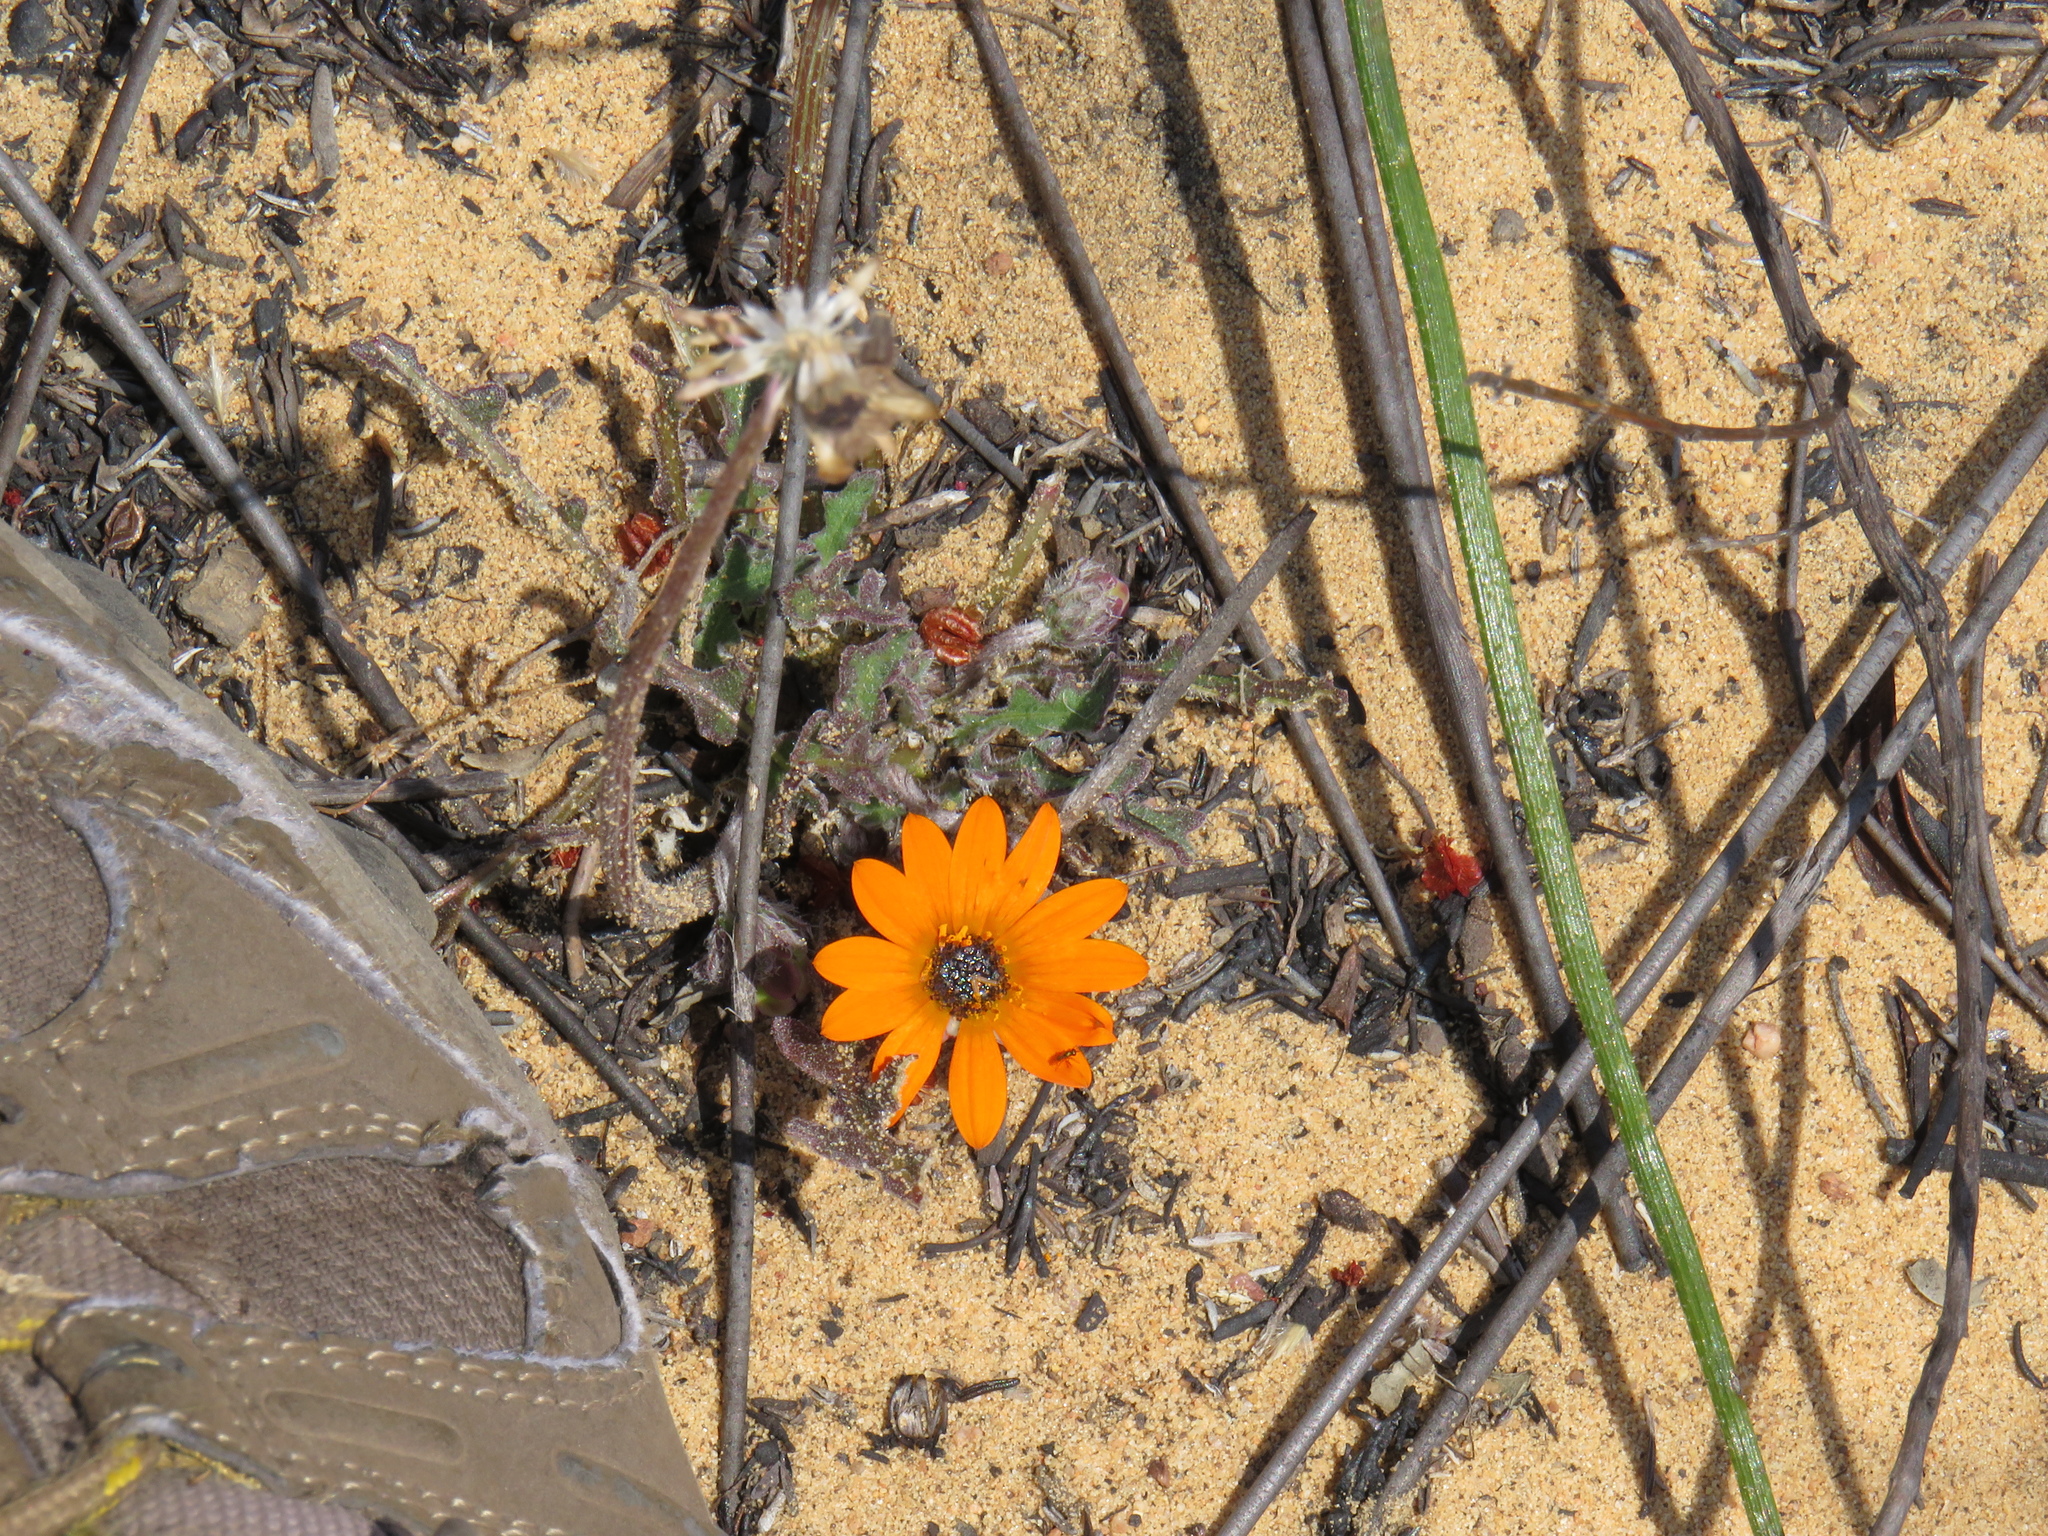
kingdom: Plantae
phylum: Tracheophyta
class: Magnoliopsida
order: Asterales
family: Asteraceae
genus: Arctotis
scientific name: Arctotis breviscapa
